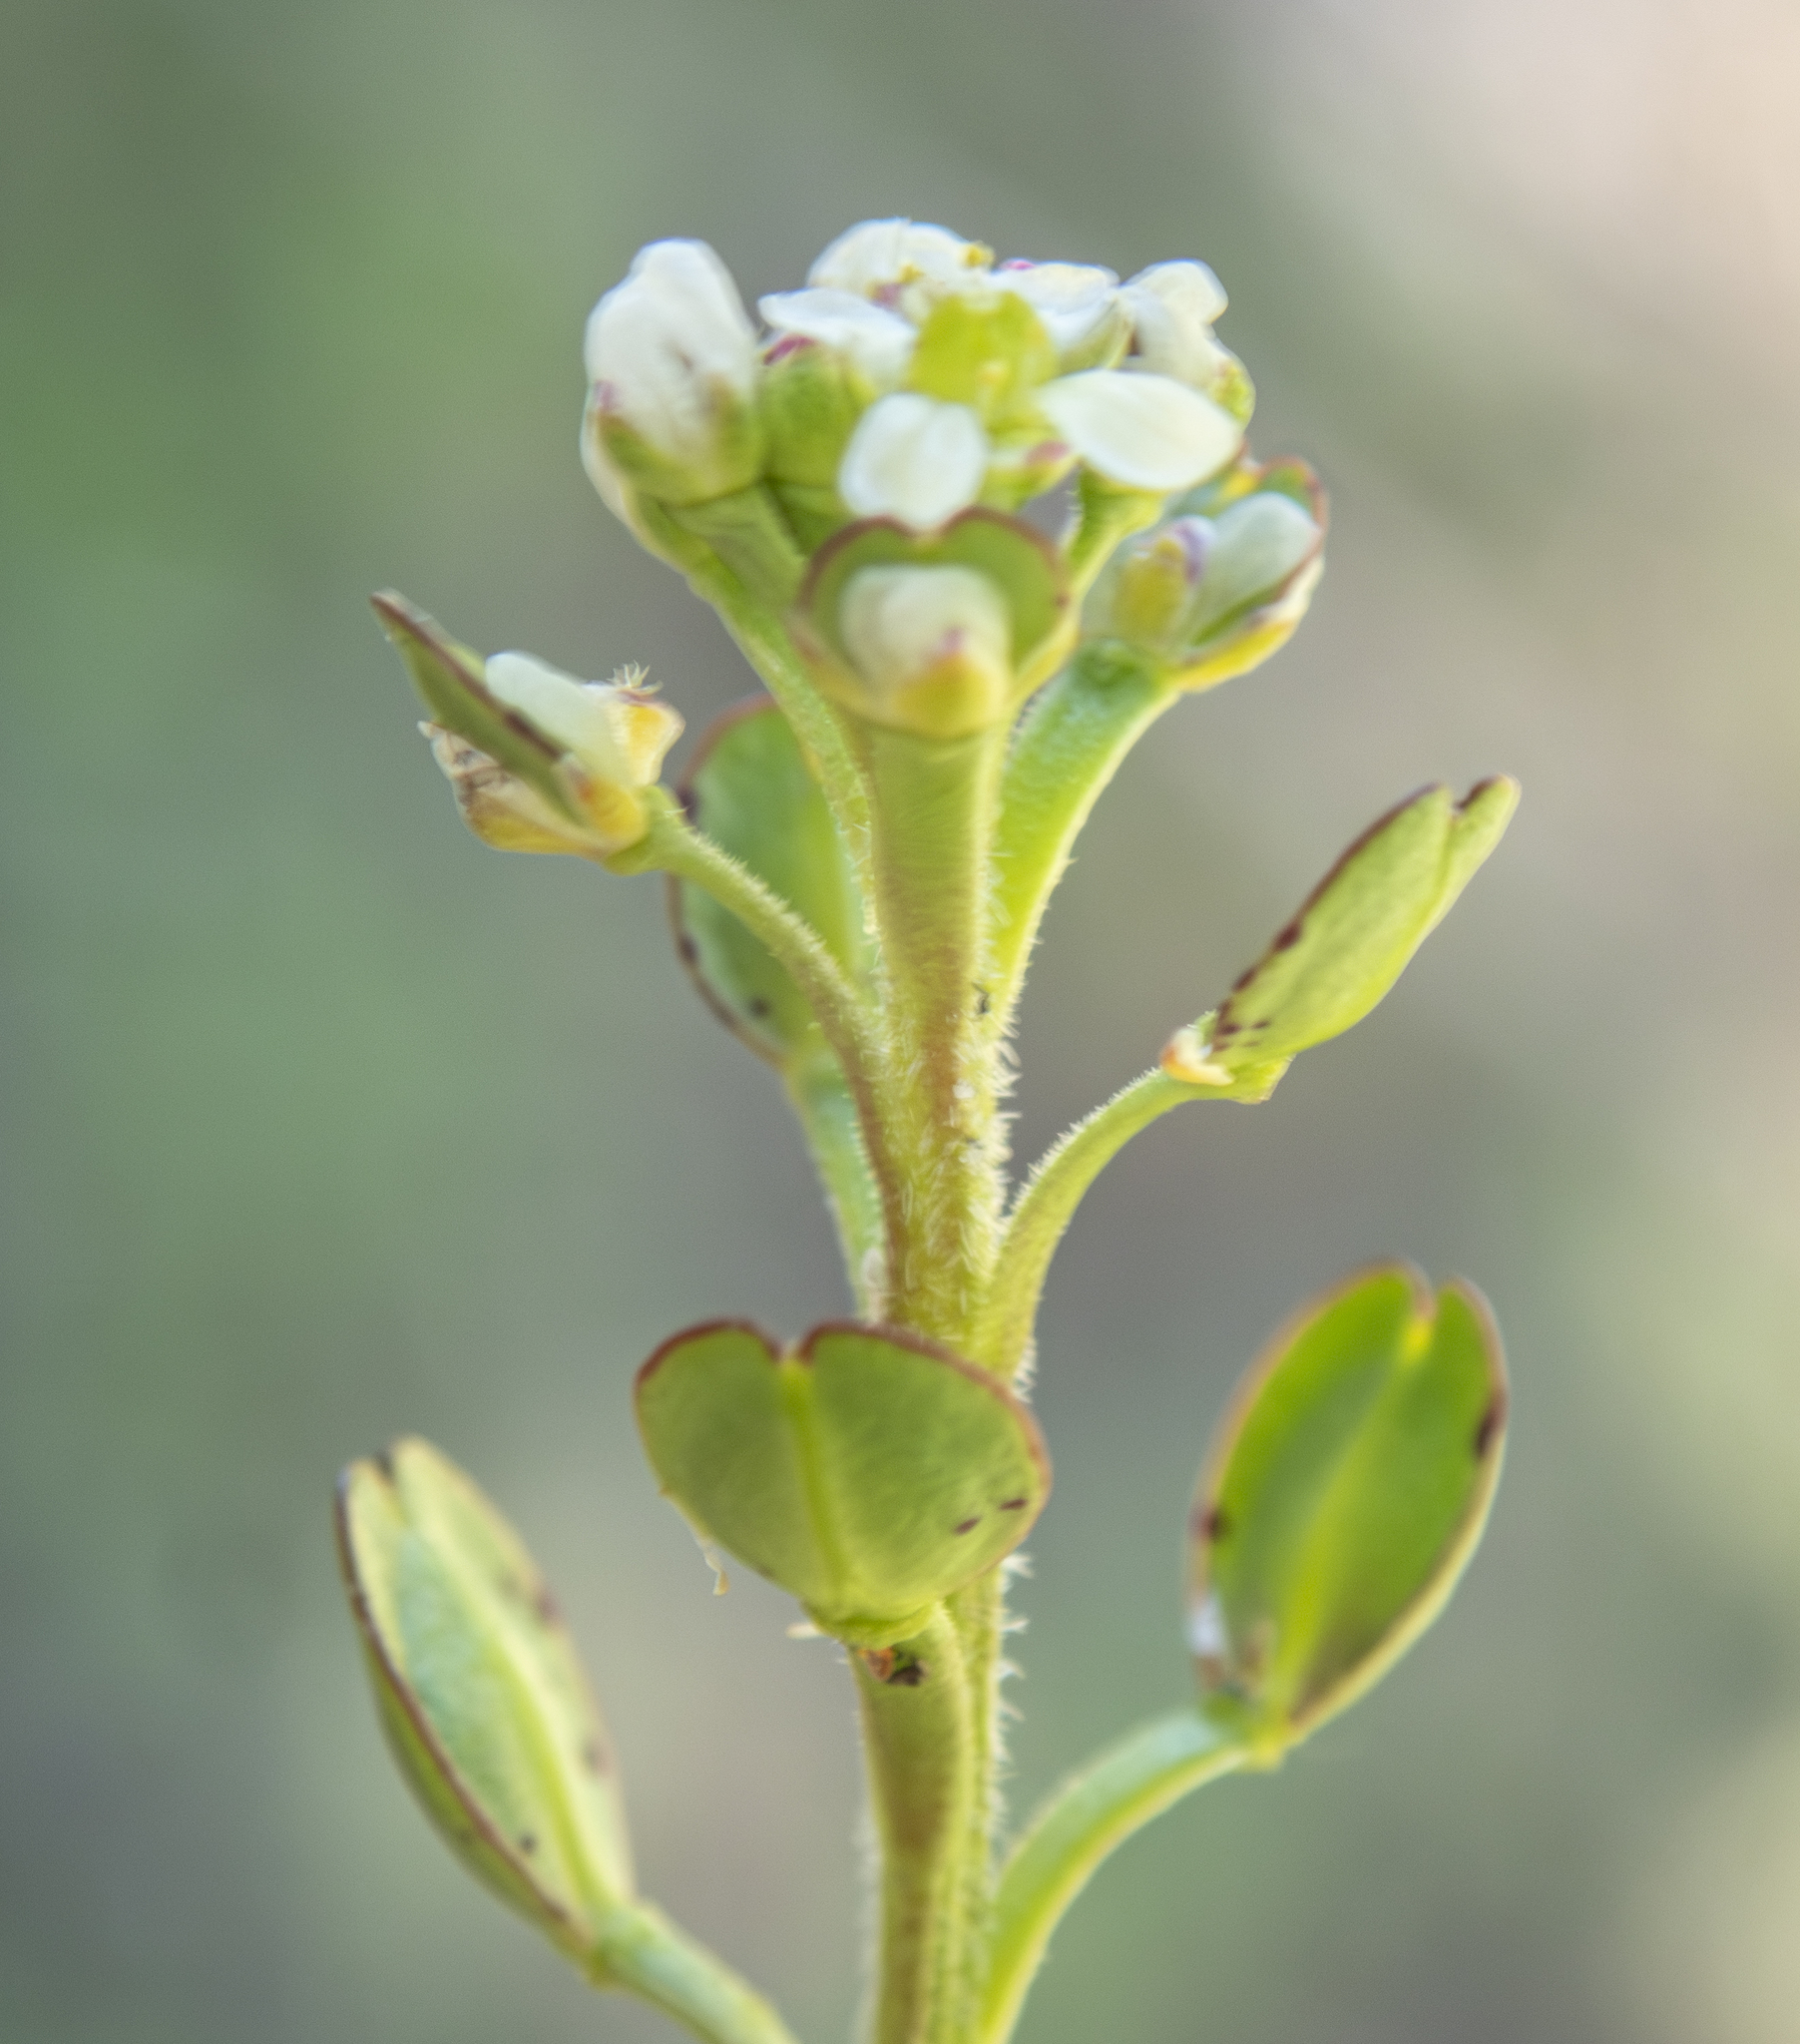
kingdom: Plantae
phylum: Tracheophyta
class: Magnoliopsida
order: Brassicales
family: Brassicaceae
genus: Lepidium
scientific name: Lepidium nitidum
